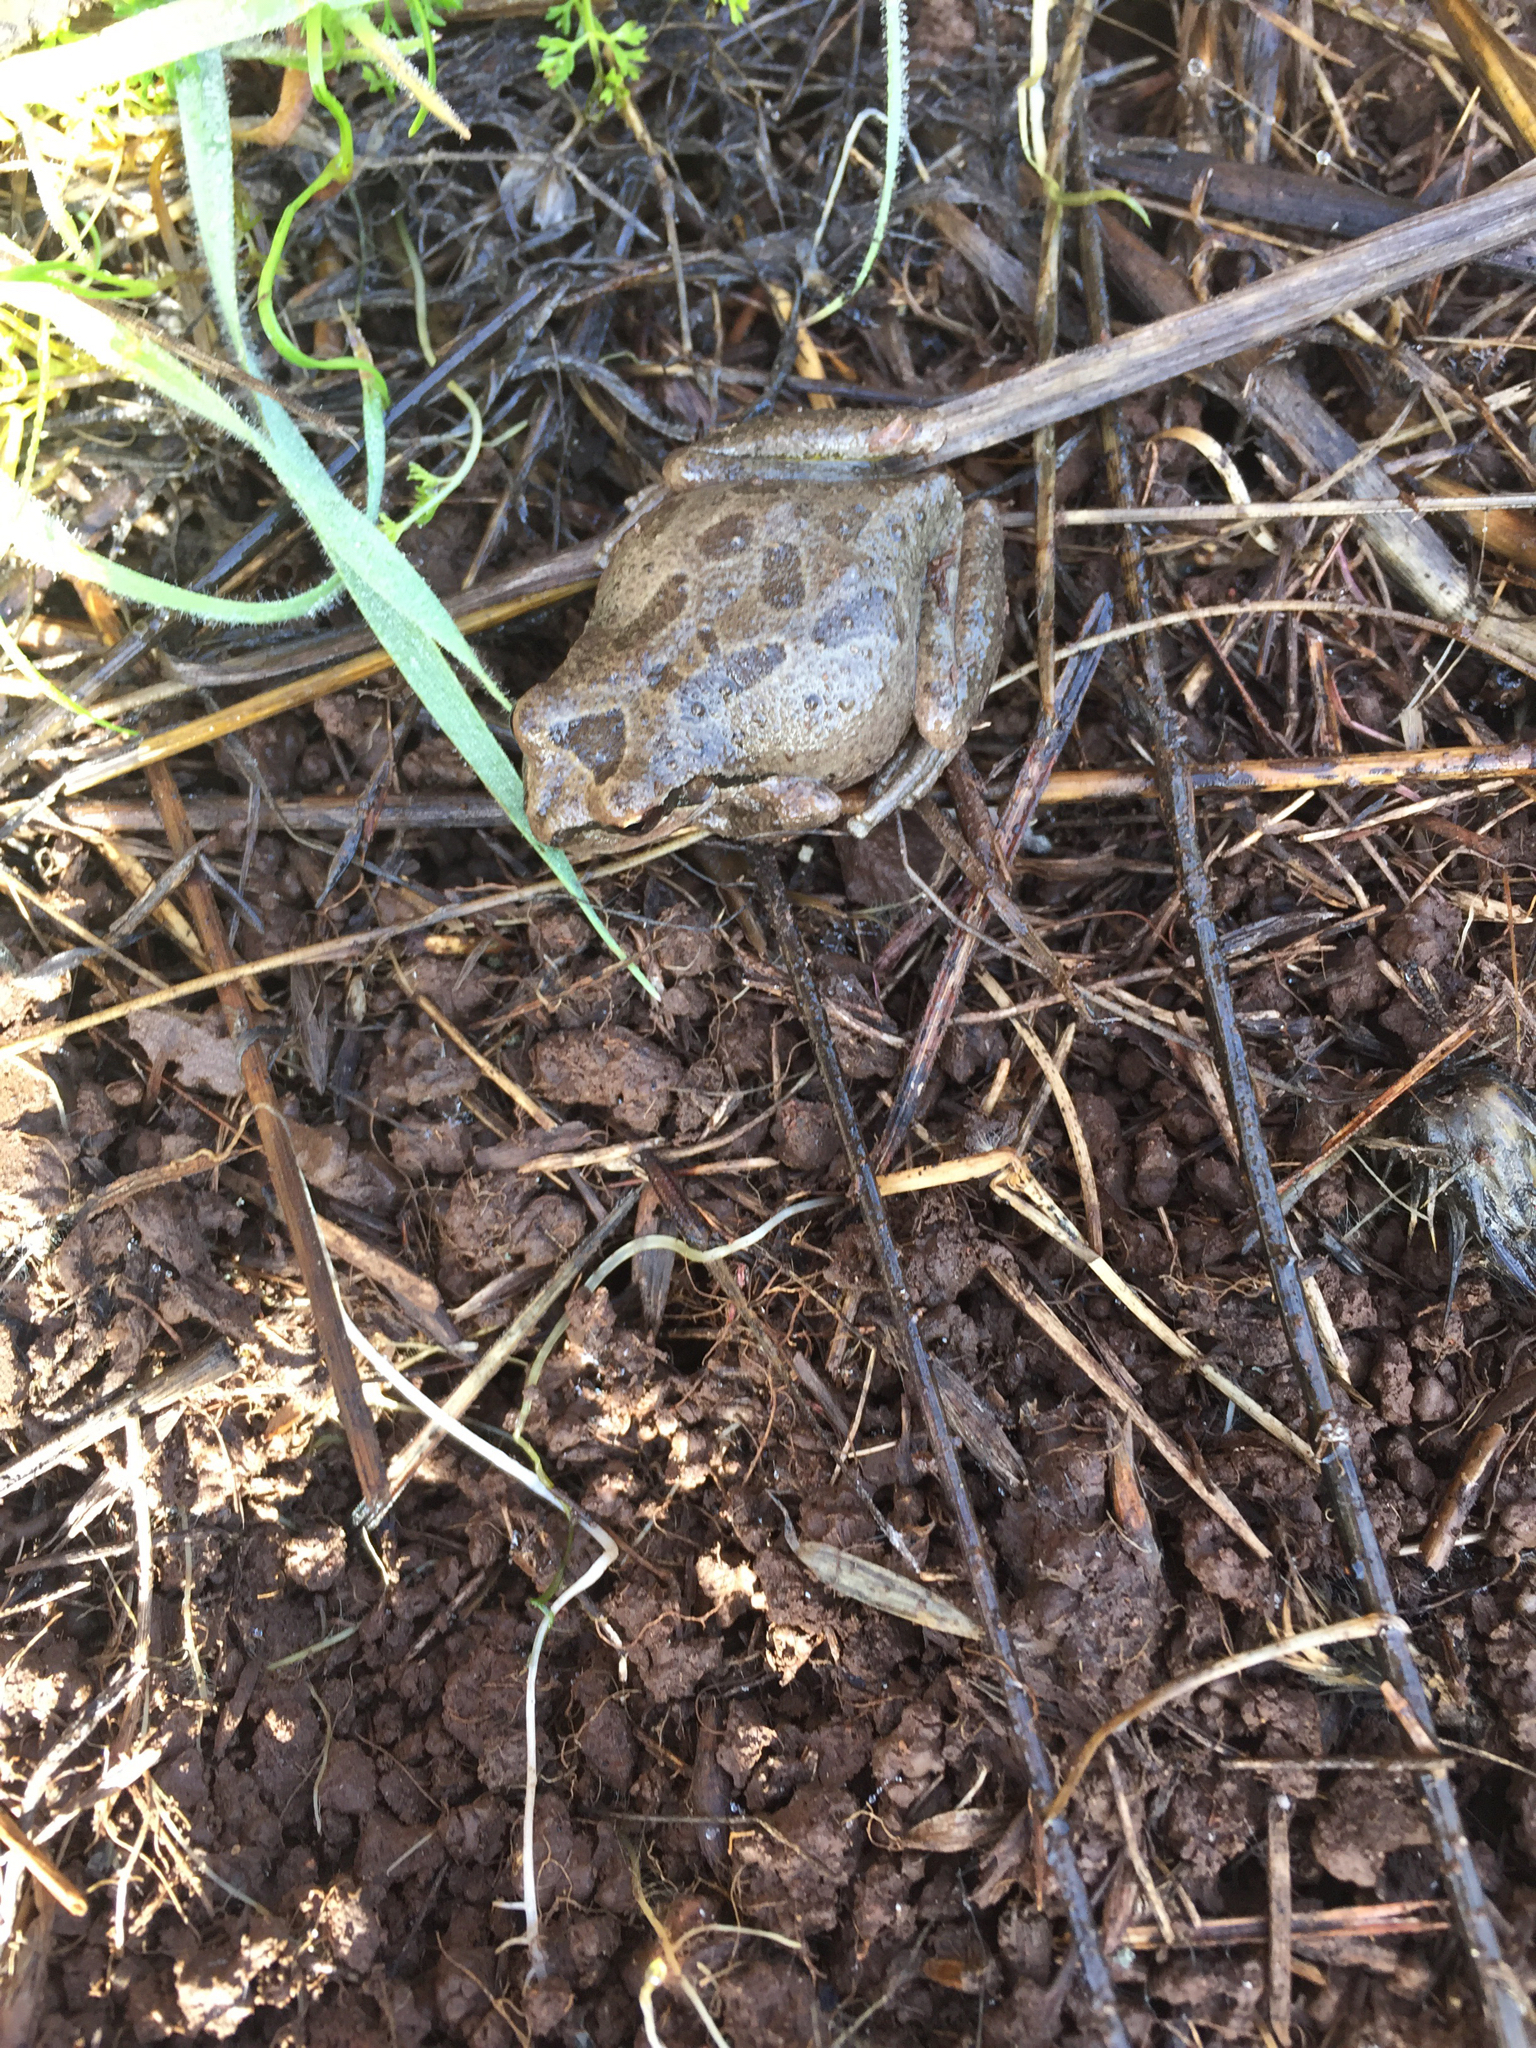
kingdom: Animalia
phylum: Chordata
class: Amphibia
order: Anura
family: Hylidae
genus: Pseudacris
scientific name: Pseudacris regilla
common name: Pacific chorus frog
